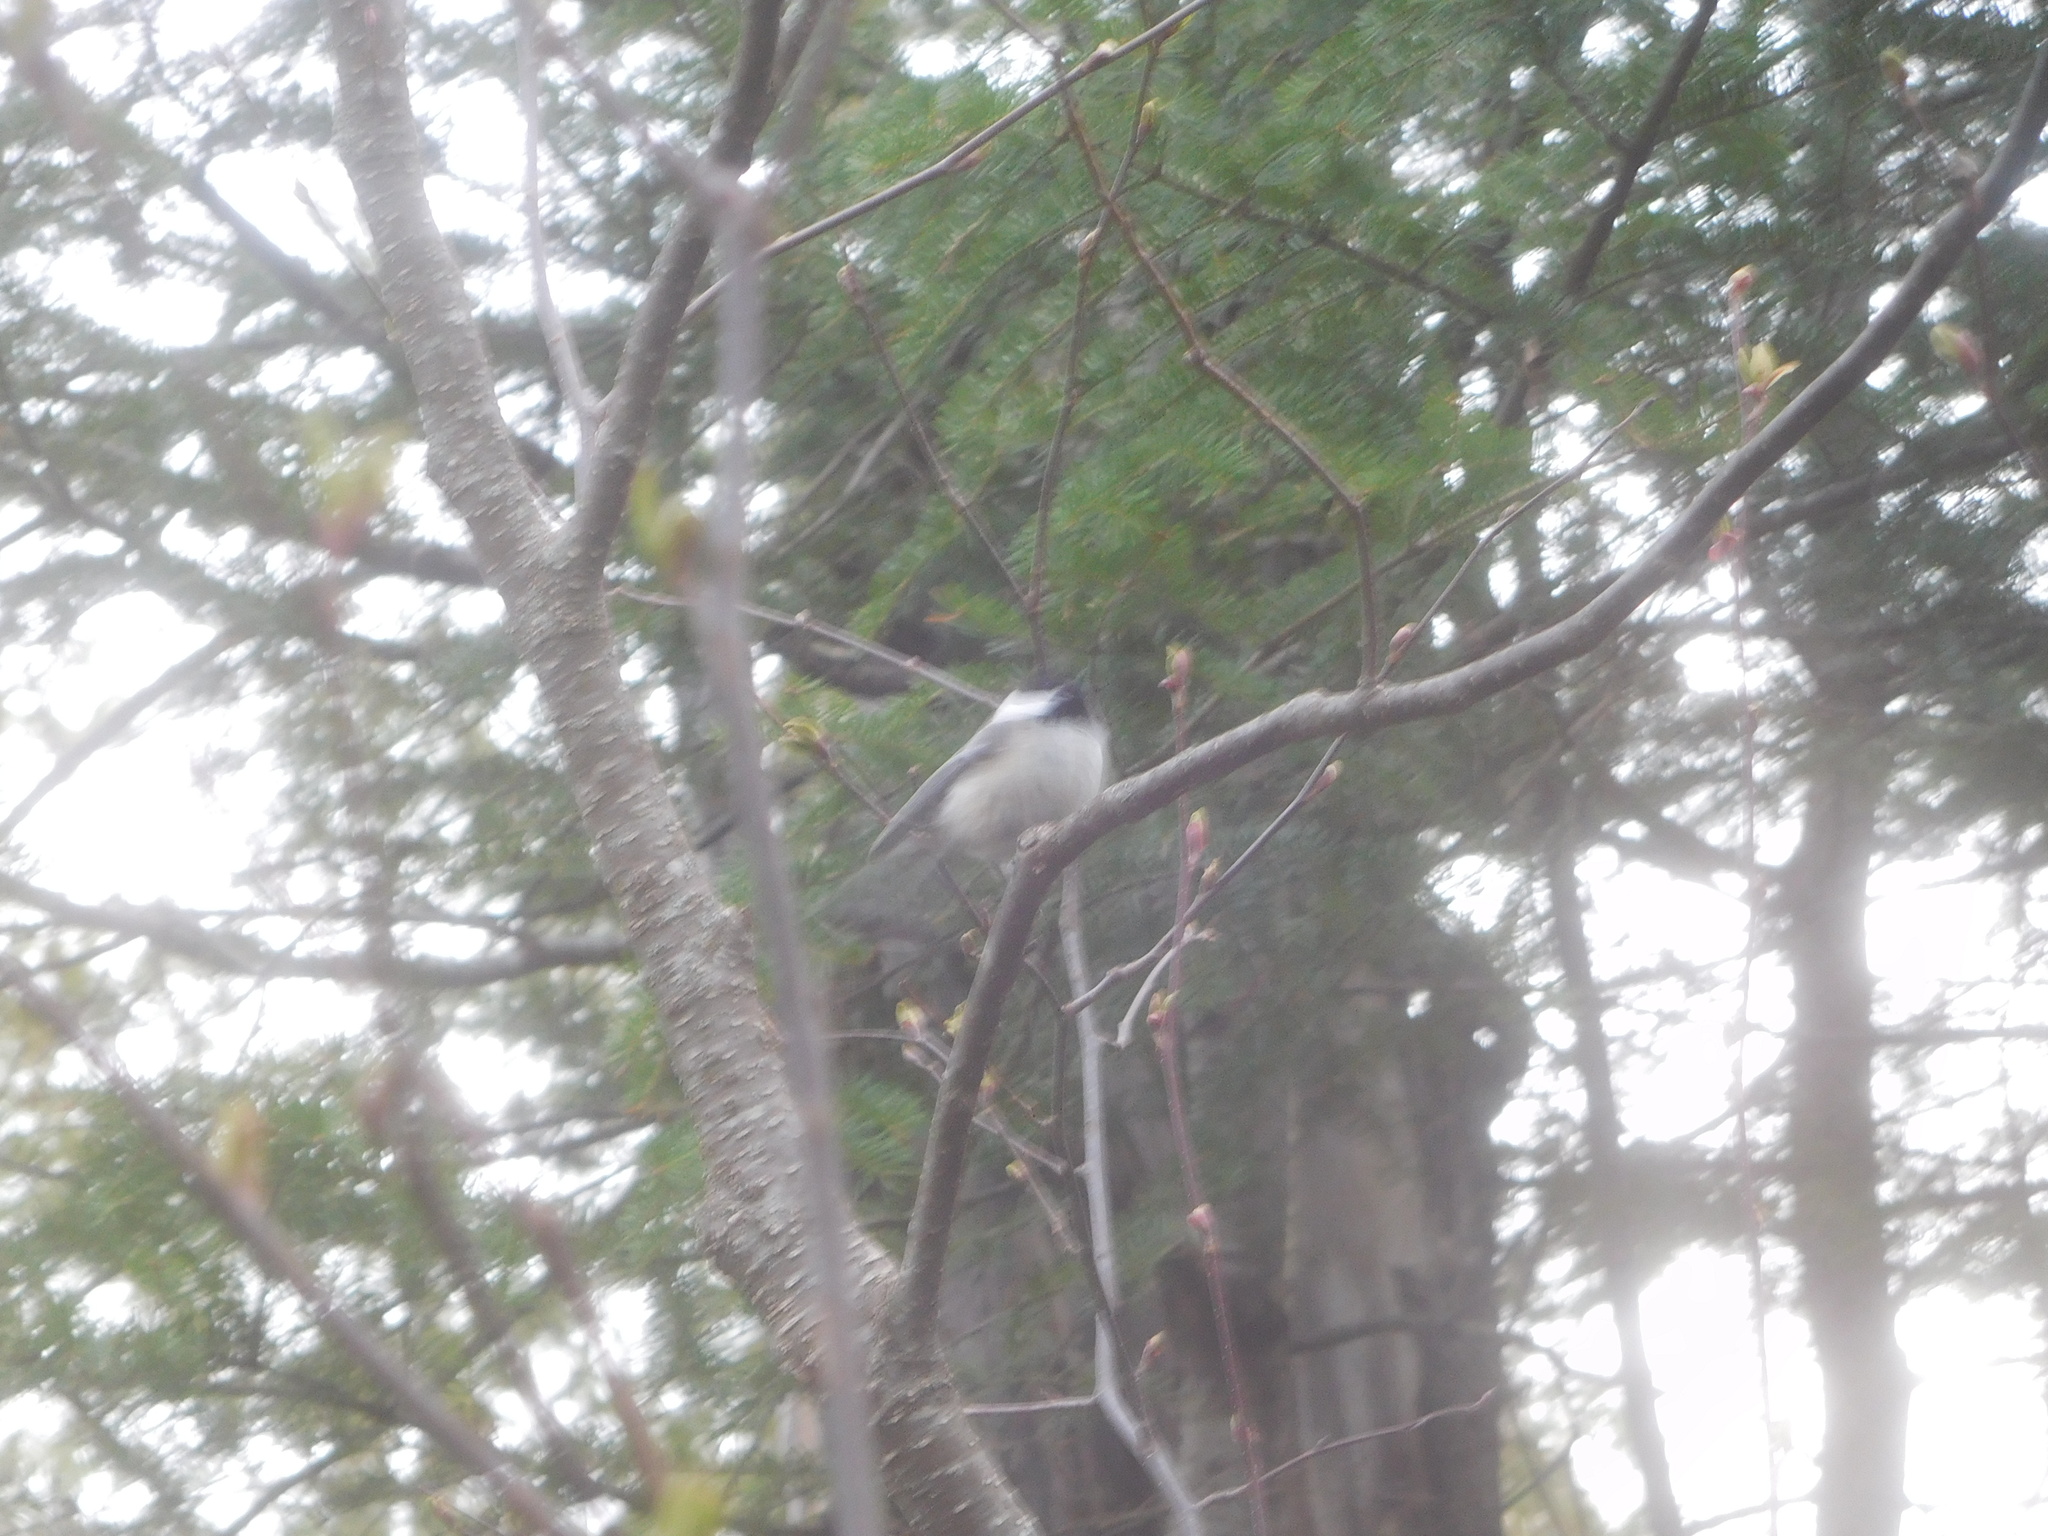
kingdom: Animalia
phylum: Chordata
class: Aves
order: Passeriformes
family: Paridae
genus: Poecile
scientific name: Poecile atricapillus
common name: Black-capped chickadee
